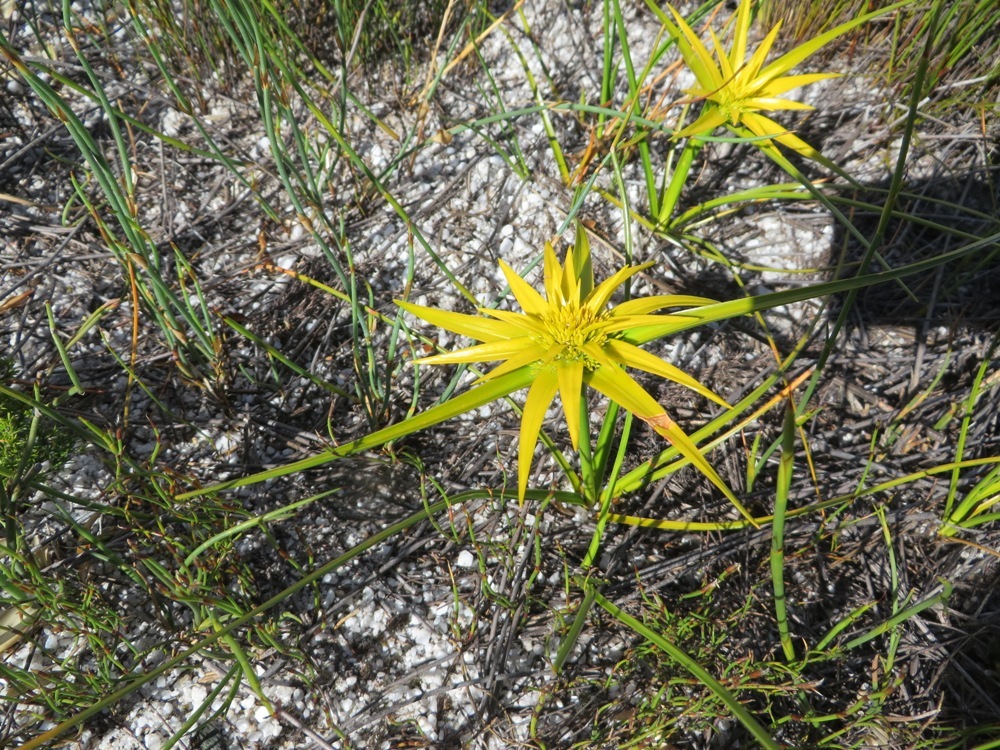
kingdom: Plantae
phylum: Tracheophyta
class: Liliopsida
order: Poales
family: Cyperaceae
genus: Ficinia
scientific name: Ficinia radiata
